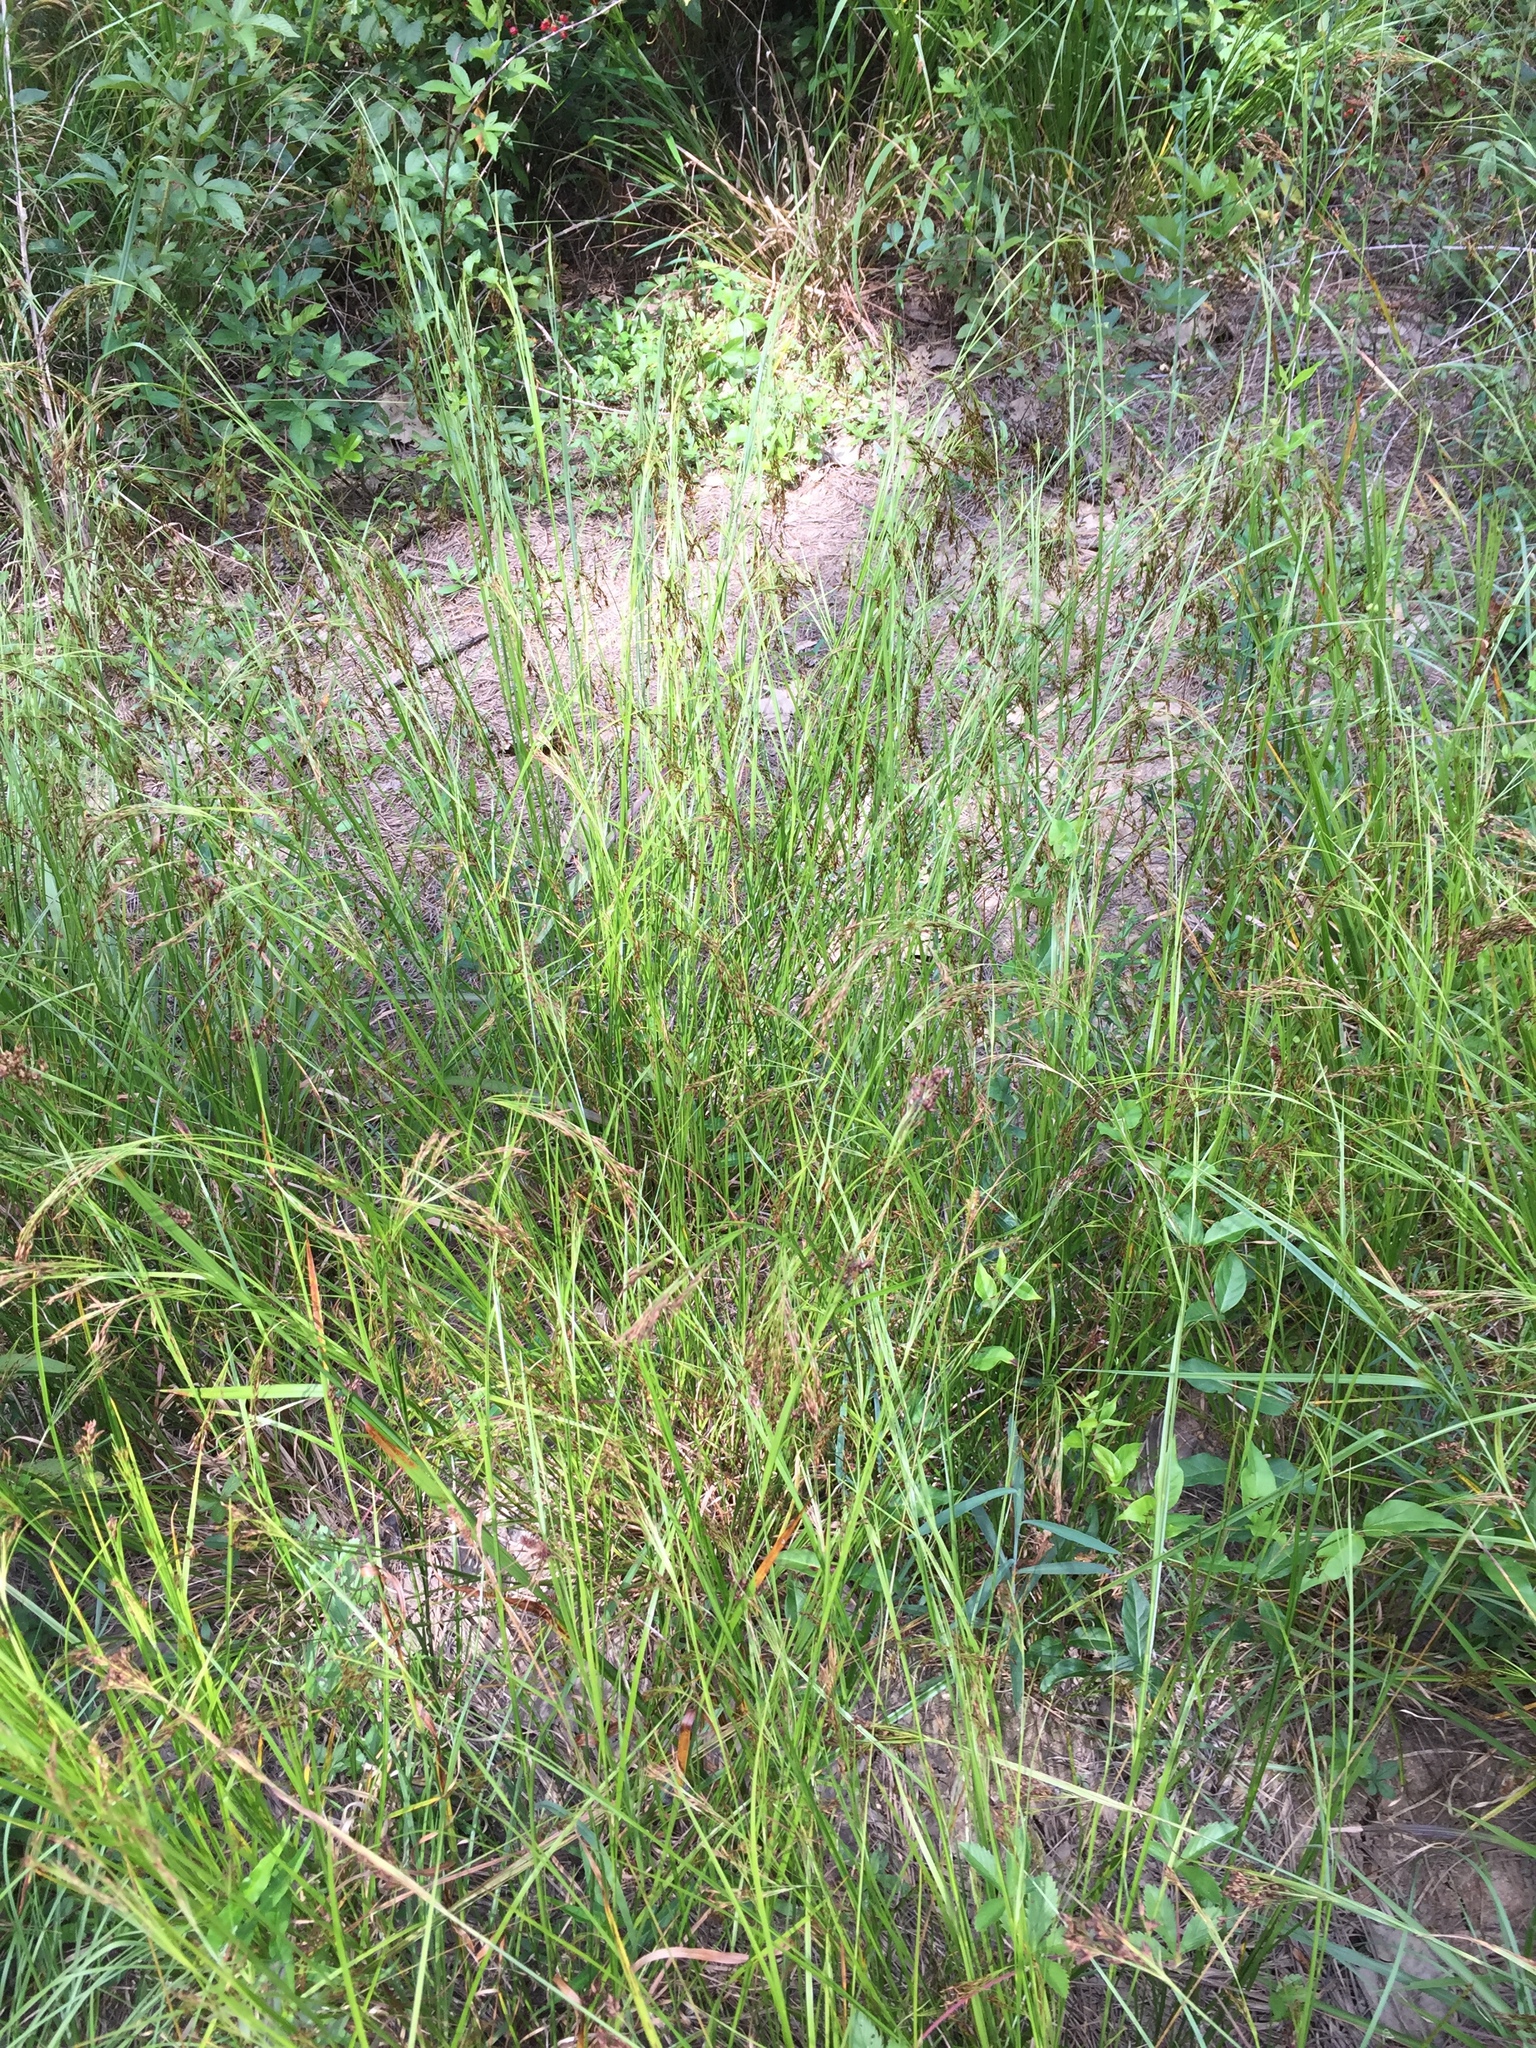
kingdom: Plantae
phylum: Tracheophyta
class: Liliopsida
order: Poales
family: Cyperaceae
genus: Rhynchospora
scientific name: Rhynchospora inexpansa
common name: Nodding beaksedge
